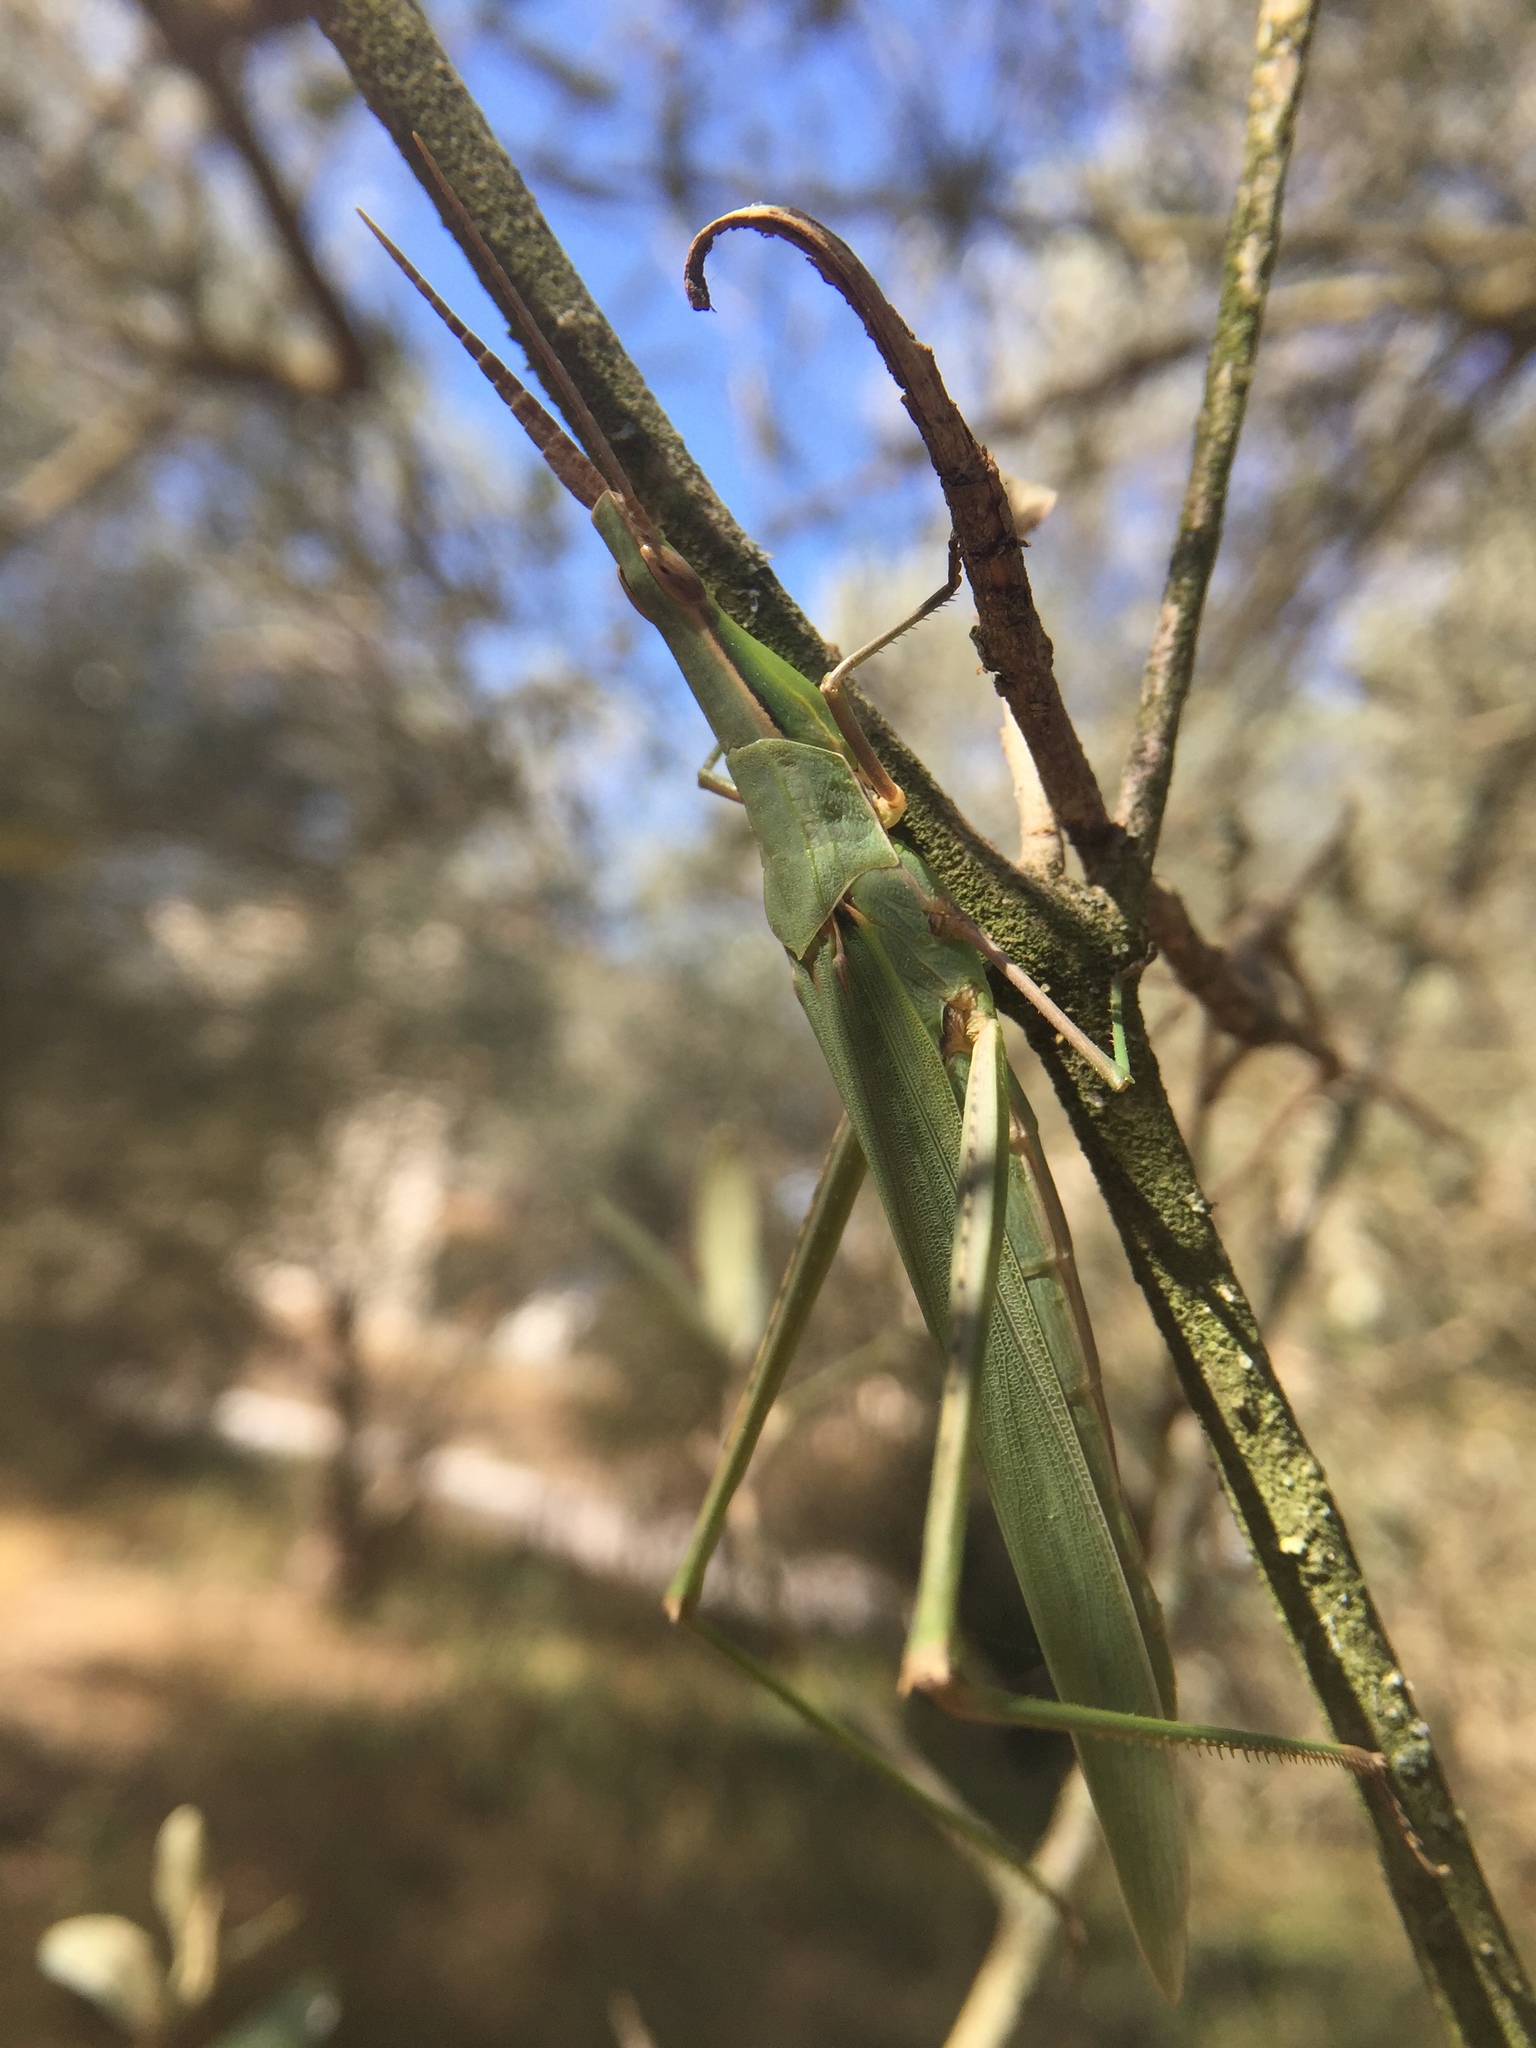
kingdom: Animalia
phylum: Arthropoda
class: Insecta
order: Orthoptera
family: Acrididae
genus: Acrida
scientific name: Acrida ungarica
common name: Common cone-headed grasshopper
